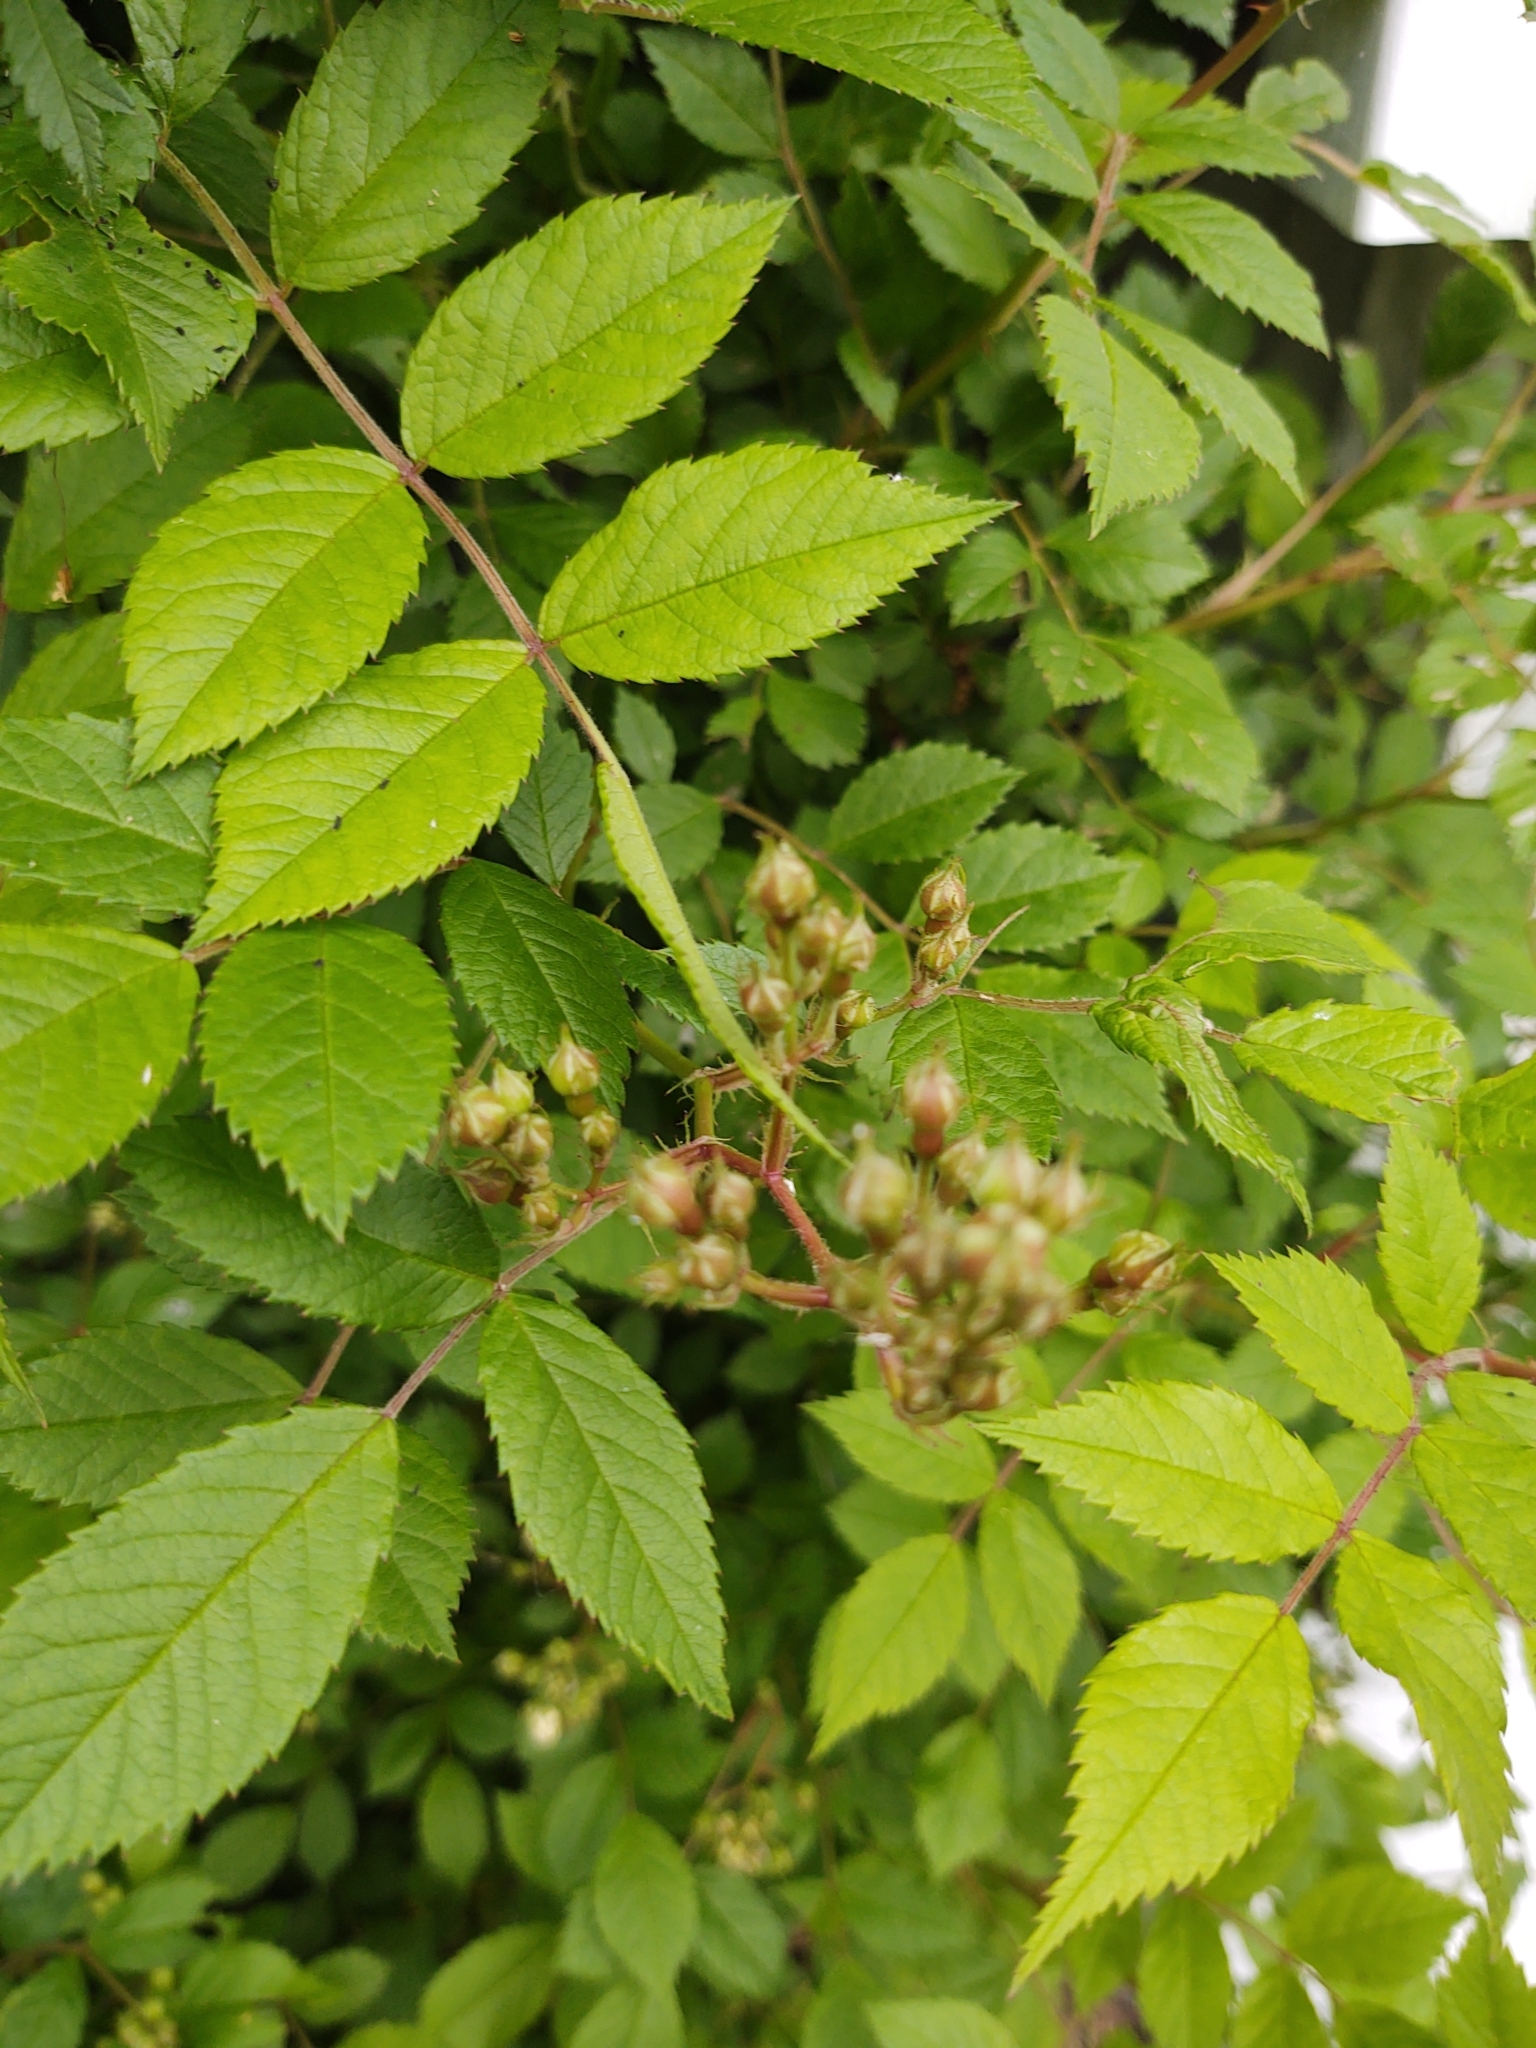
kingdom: Plantae
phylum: Tracheophyta
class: Magnoliopsida
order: Rosales
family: Rosaceae
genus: Rosa
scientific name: Rosa multiflora
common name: Multiflora rose
